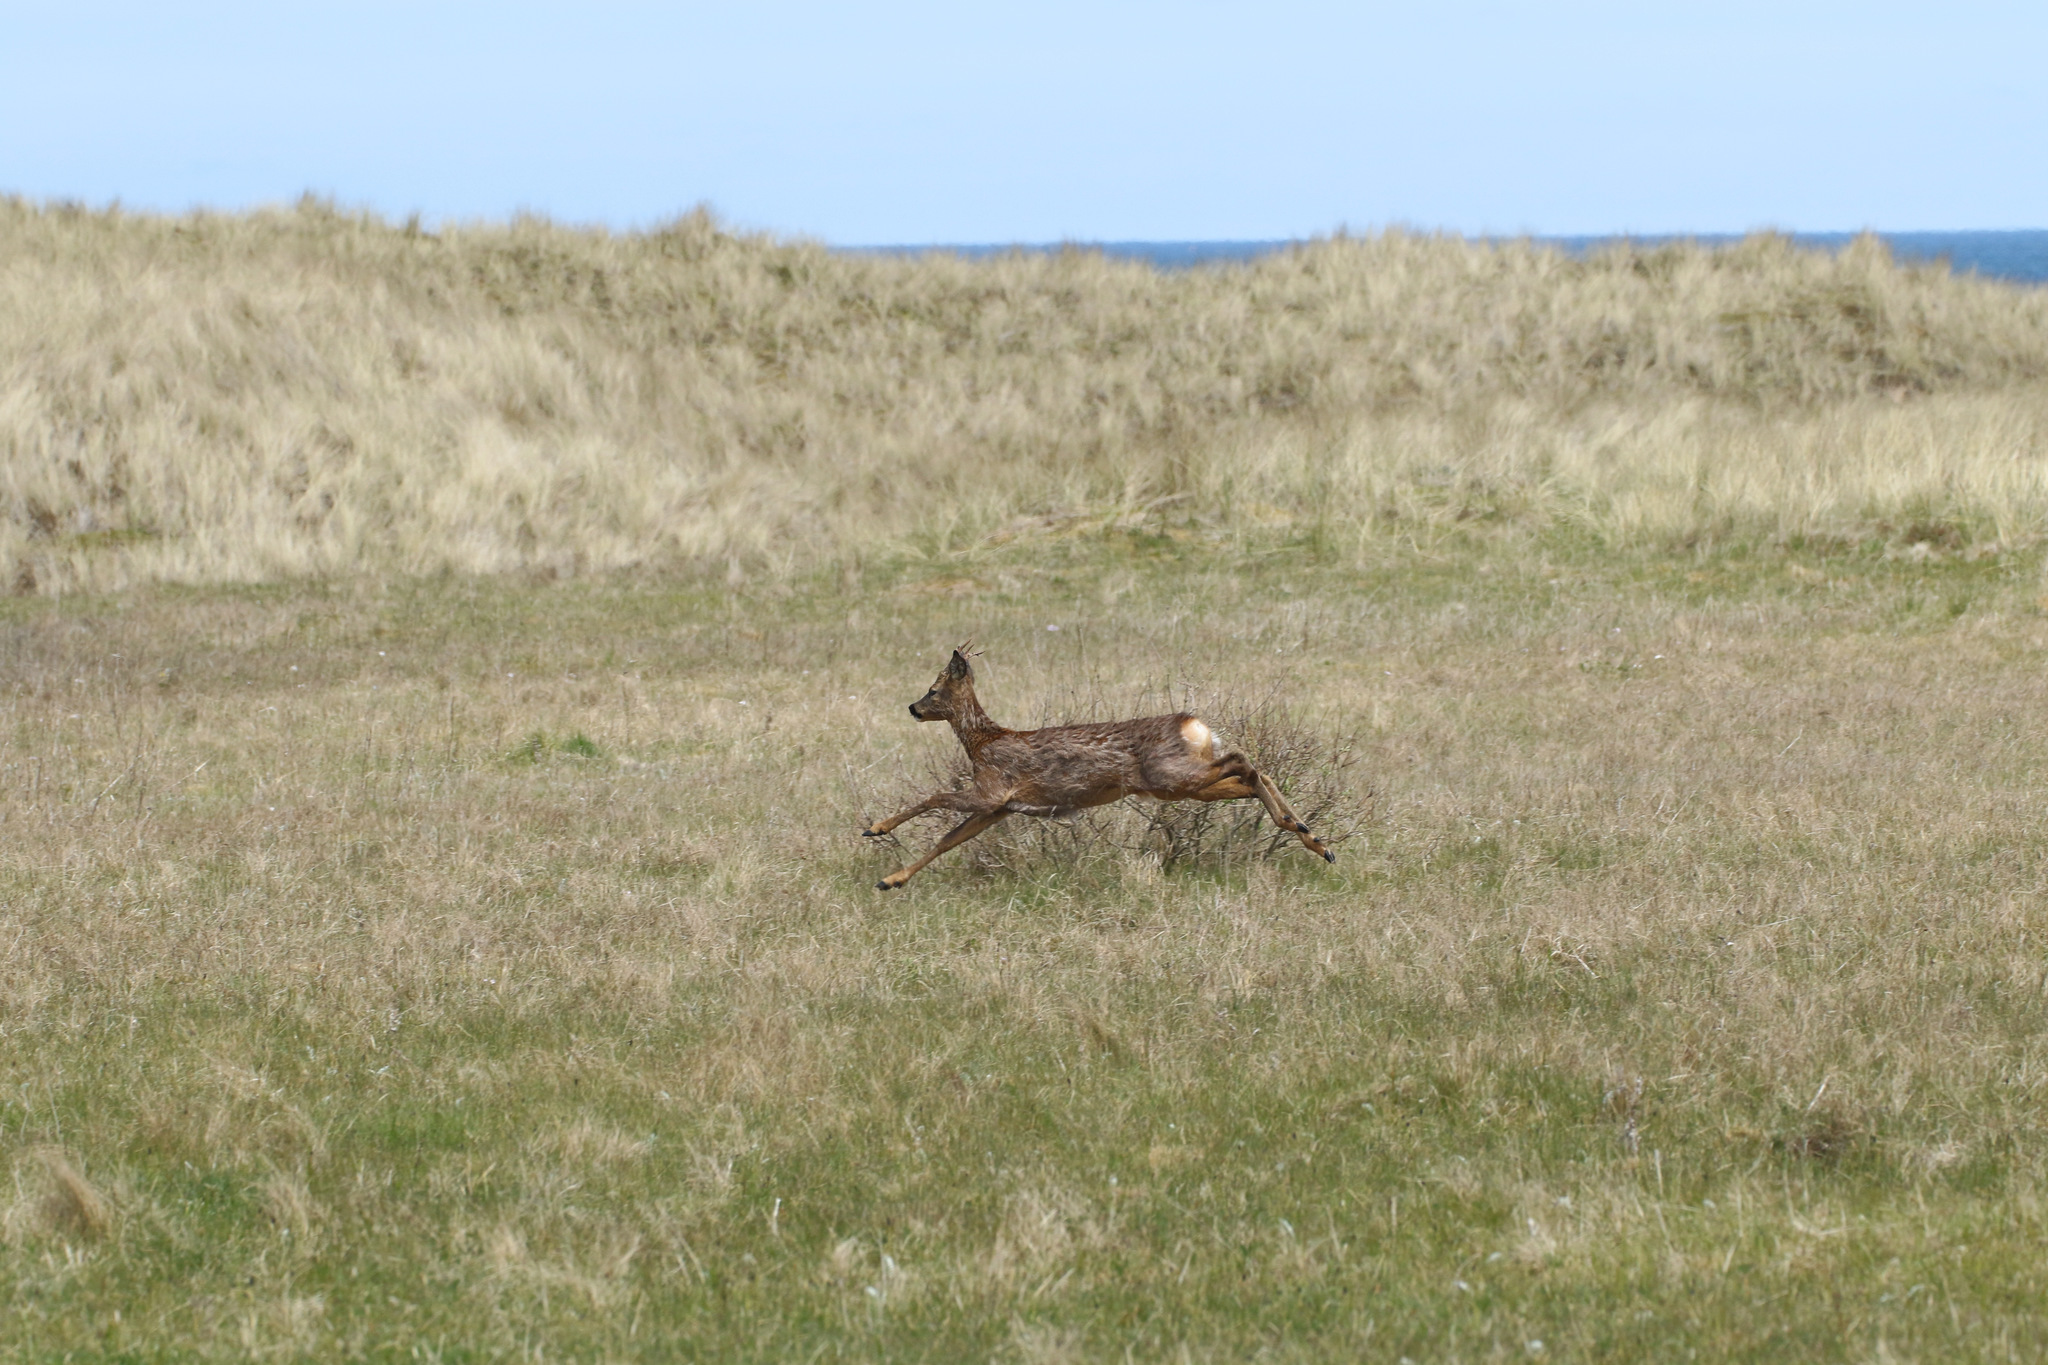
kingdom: Animalia
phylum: Chordata
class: Mammalia
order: Artiodactyla
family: Cervidae
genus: Capreolus
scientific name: Capreolus capreolus
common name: Western roe deer
